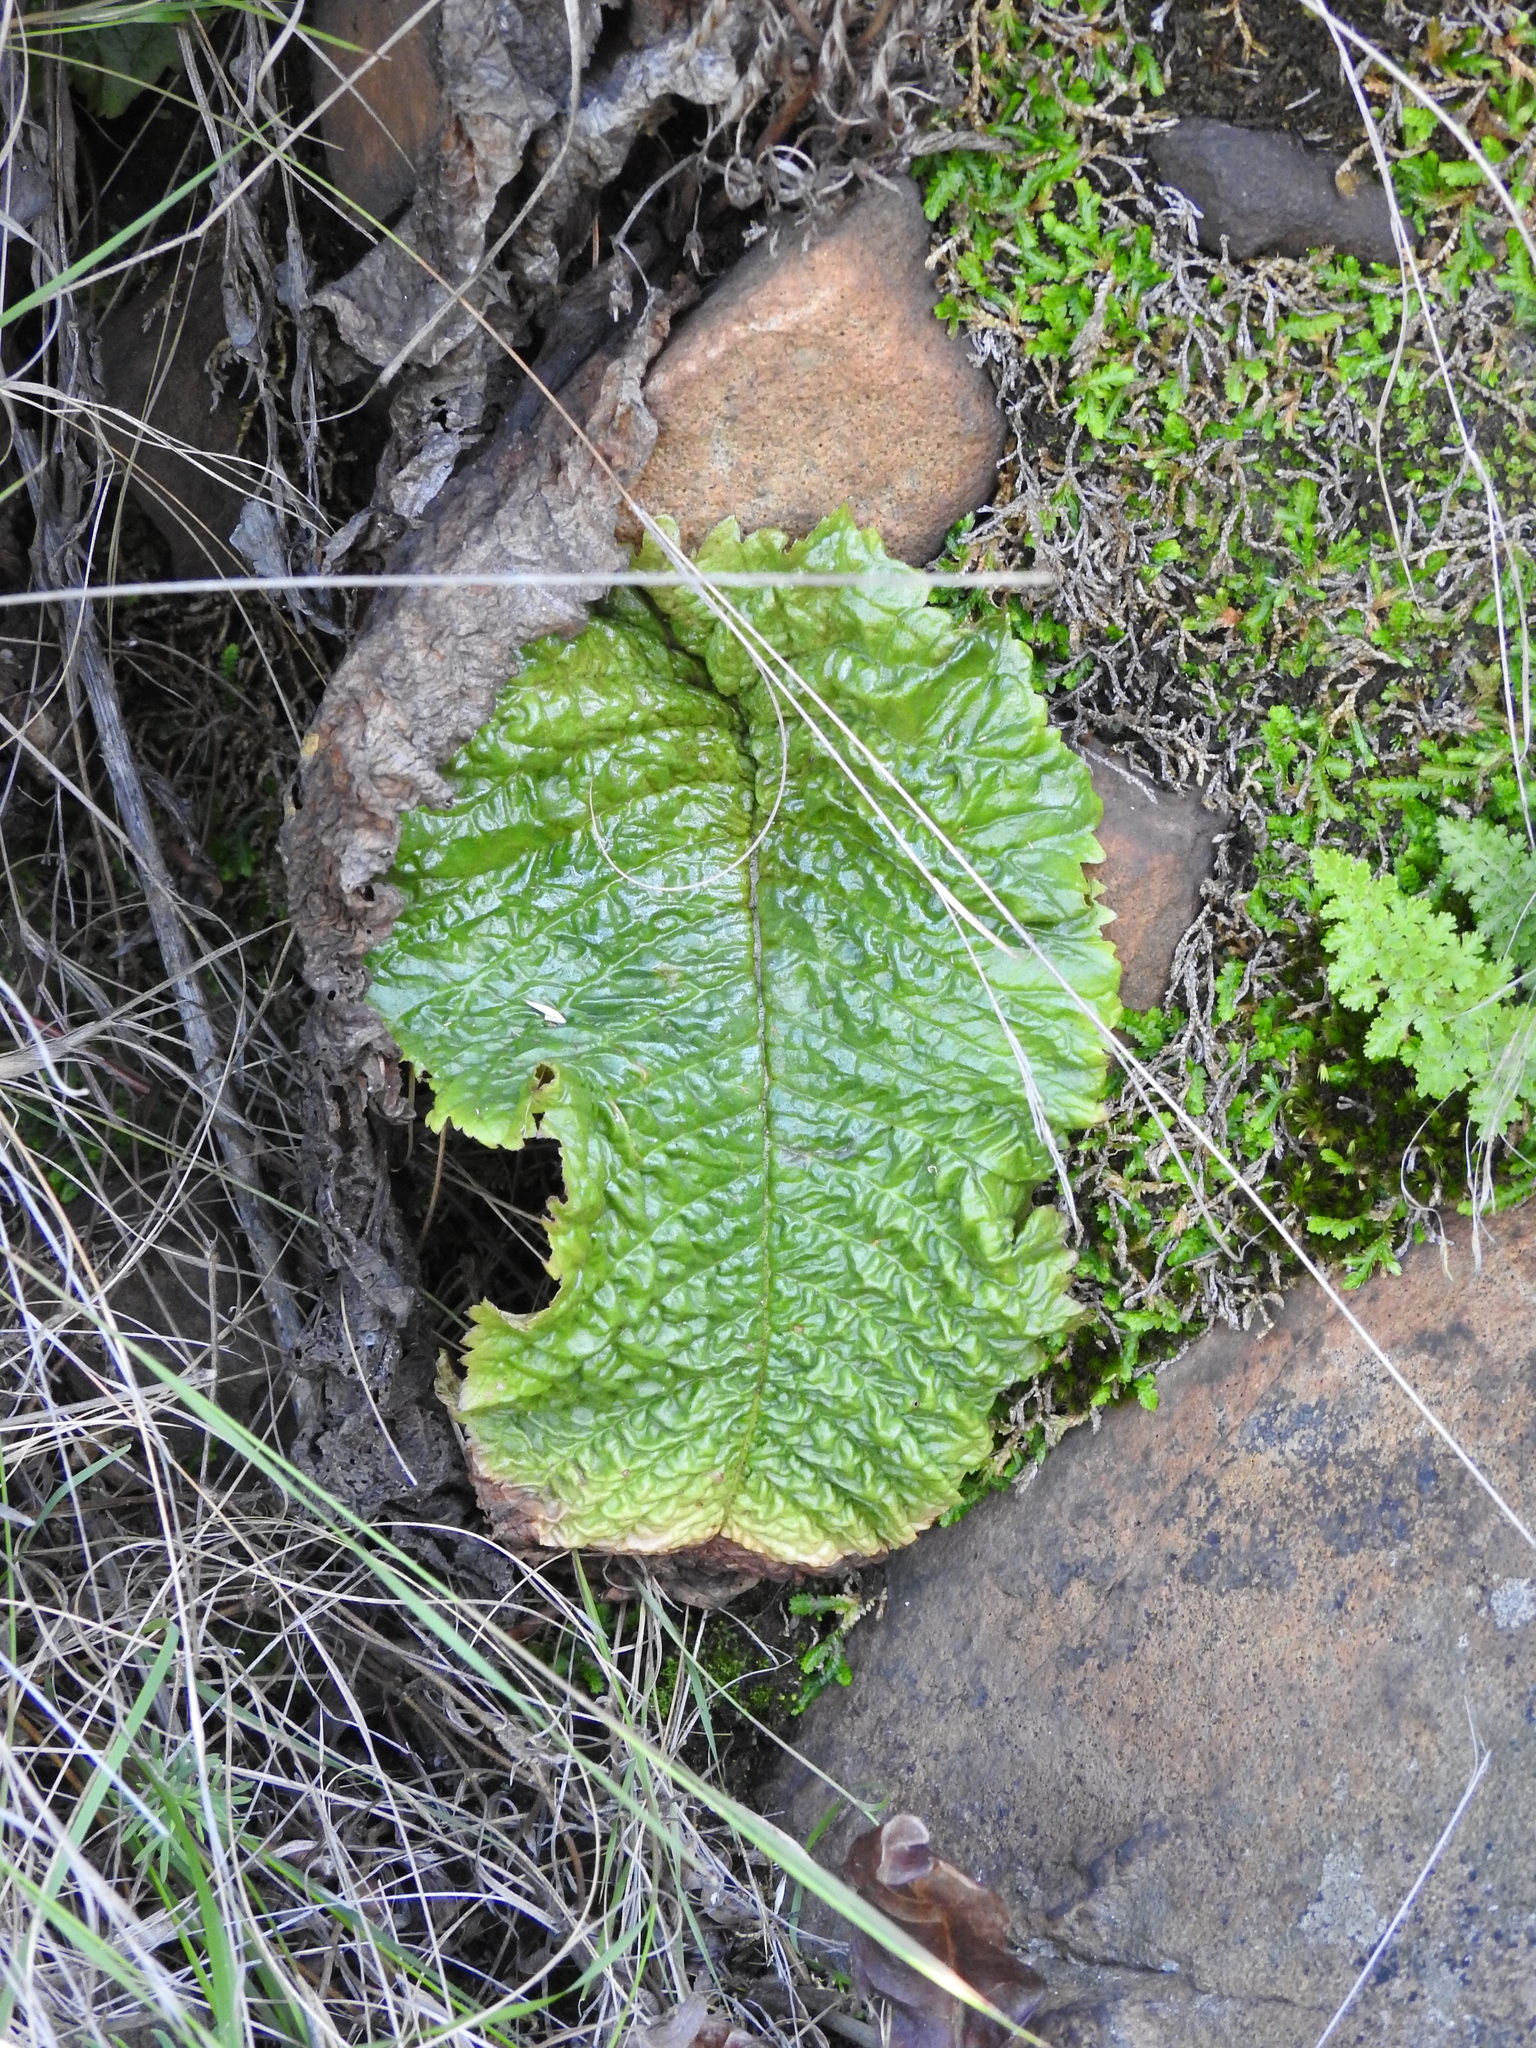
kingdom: Plantae
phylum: Tracheophyta
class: Magnoliopsida
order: Lamiales
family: Gesneriaceae
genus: Streptocarpus
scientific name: Streptocarpus denticulatus
